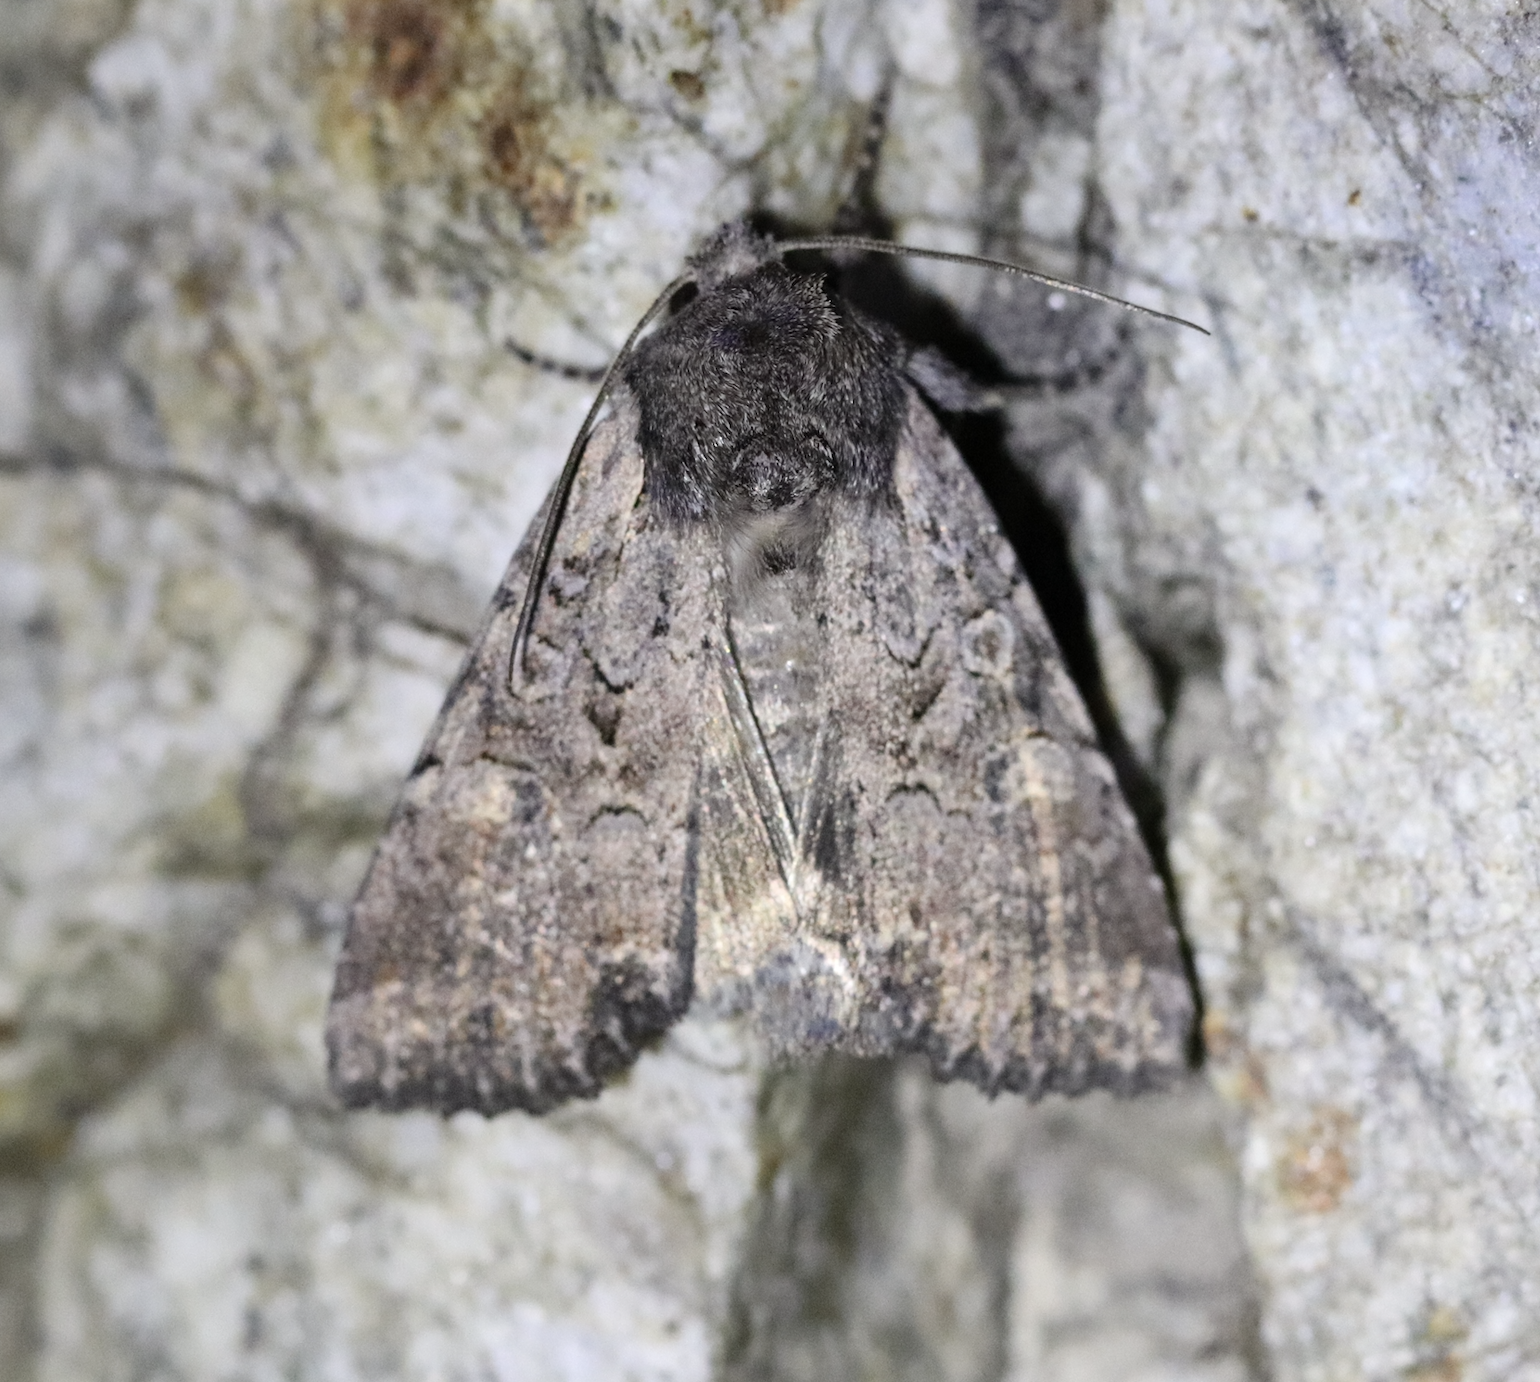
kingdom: Animalia
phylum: Arthropoda
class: Insecta
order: Lepidoptera
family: Noctuidae
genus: Lacanobia
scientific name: Lacanobia suasa
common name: Dog's tooth
